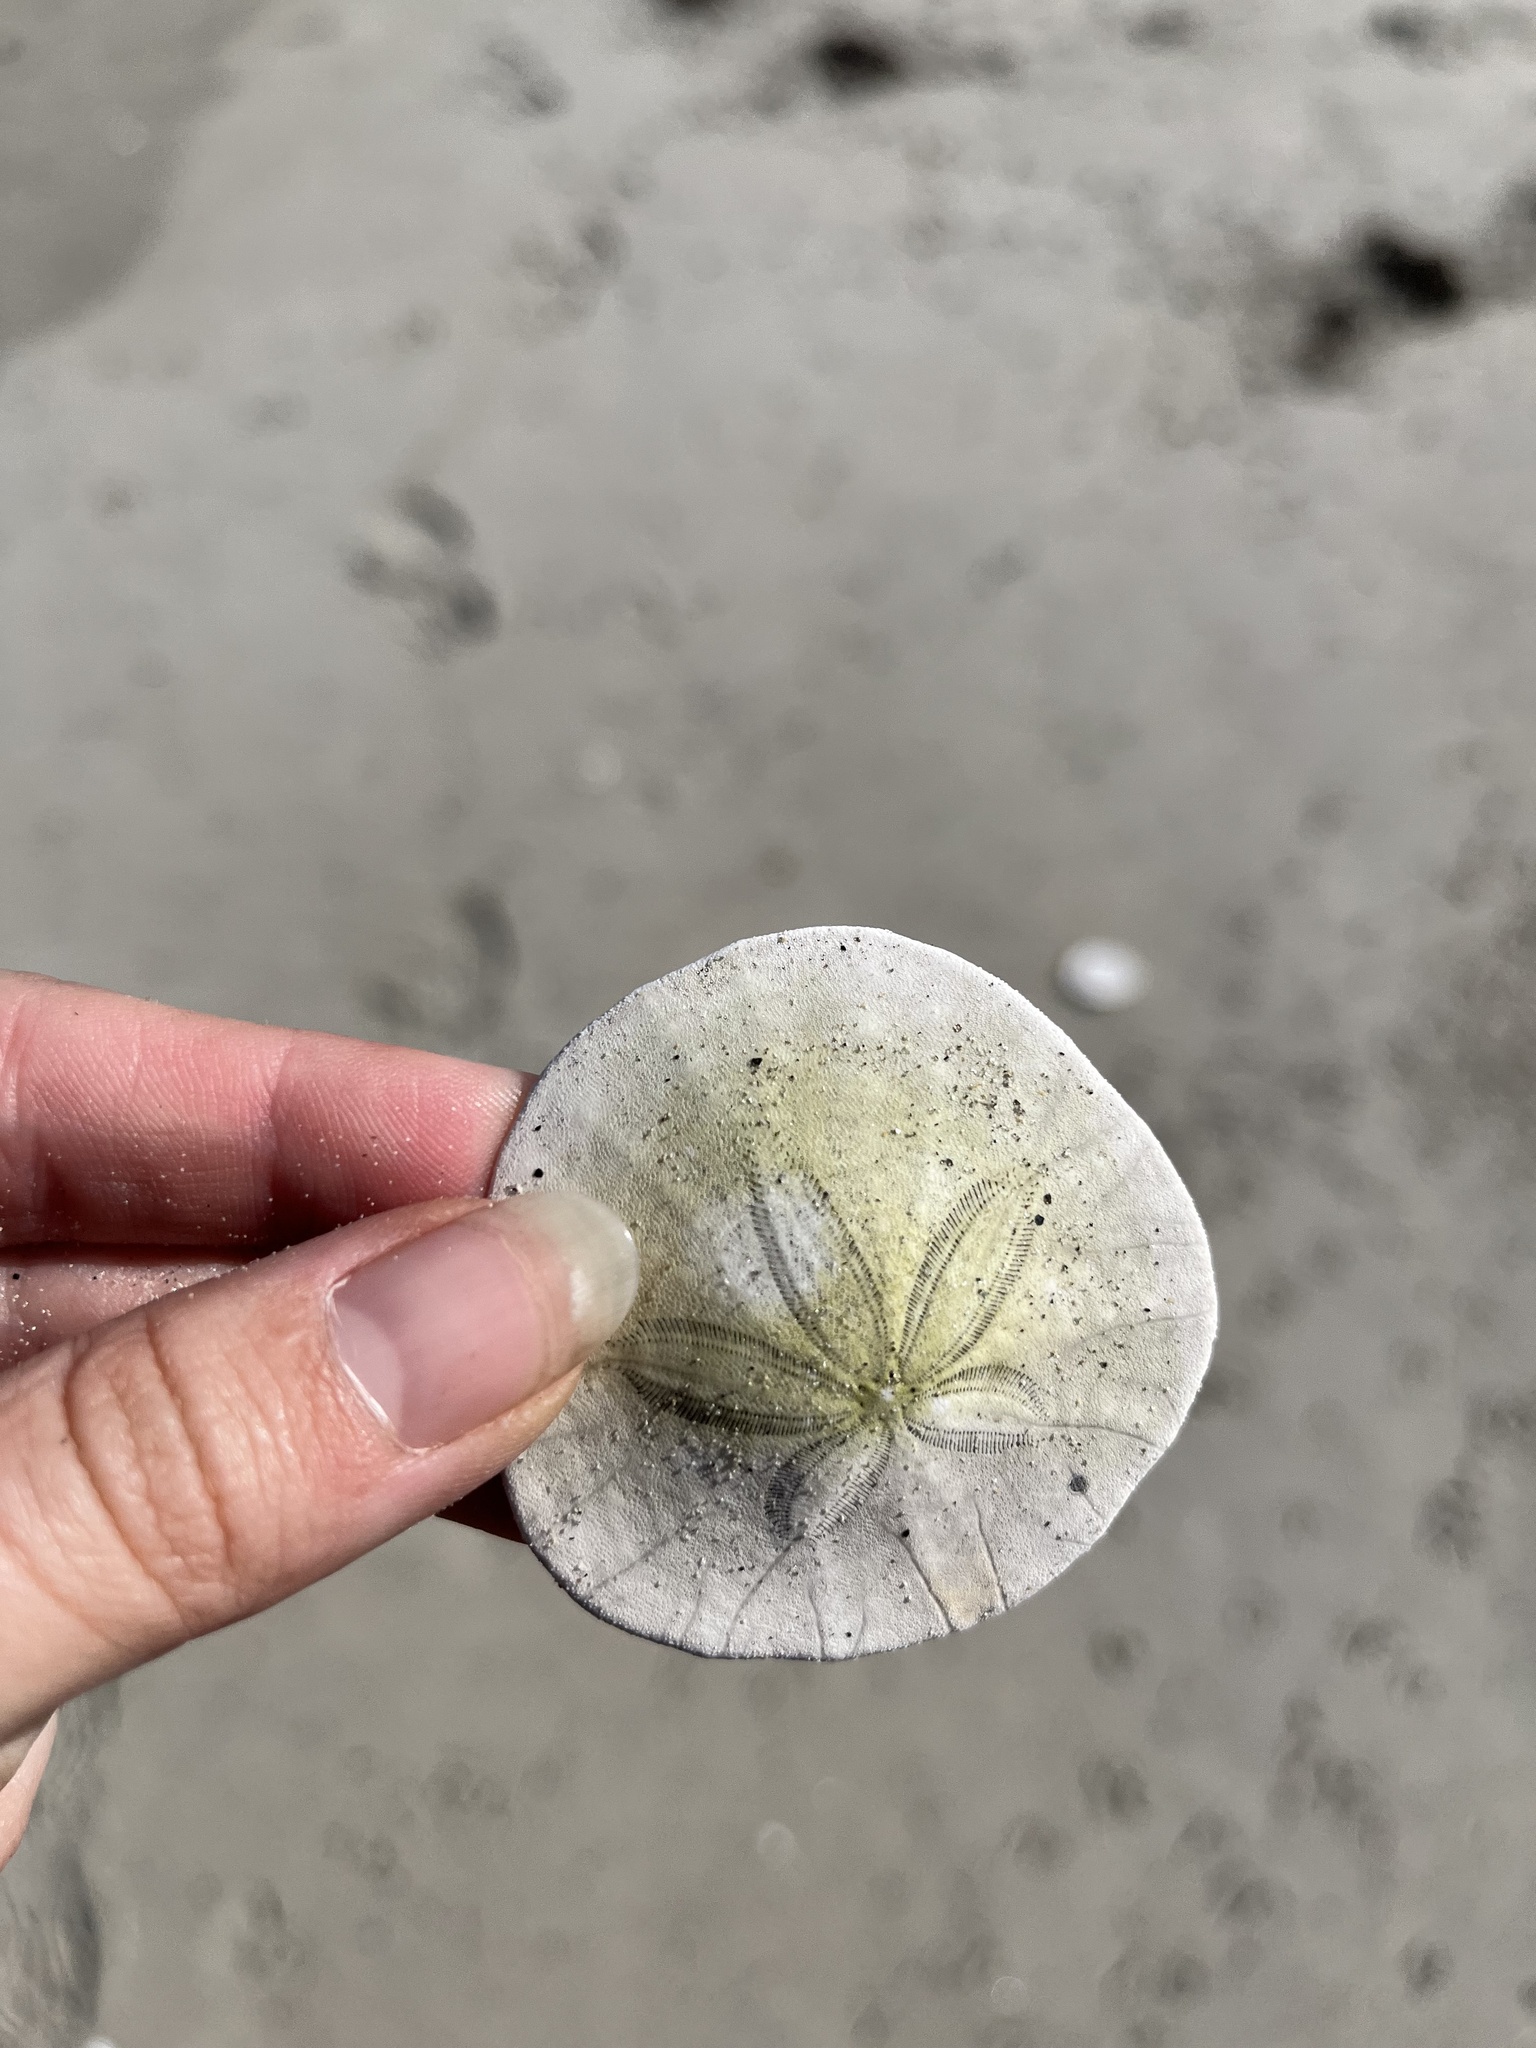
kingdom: Animalia
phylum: Echinodermata
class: Echinoidea
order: Echinolampadacea
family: Dendrasteridae
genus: Dendraster
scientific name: Dendraster excentricus
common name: Eccentric sand dollar sea urchin
